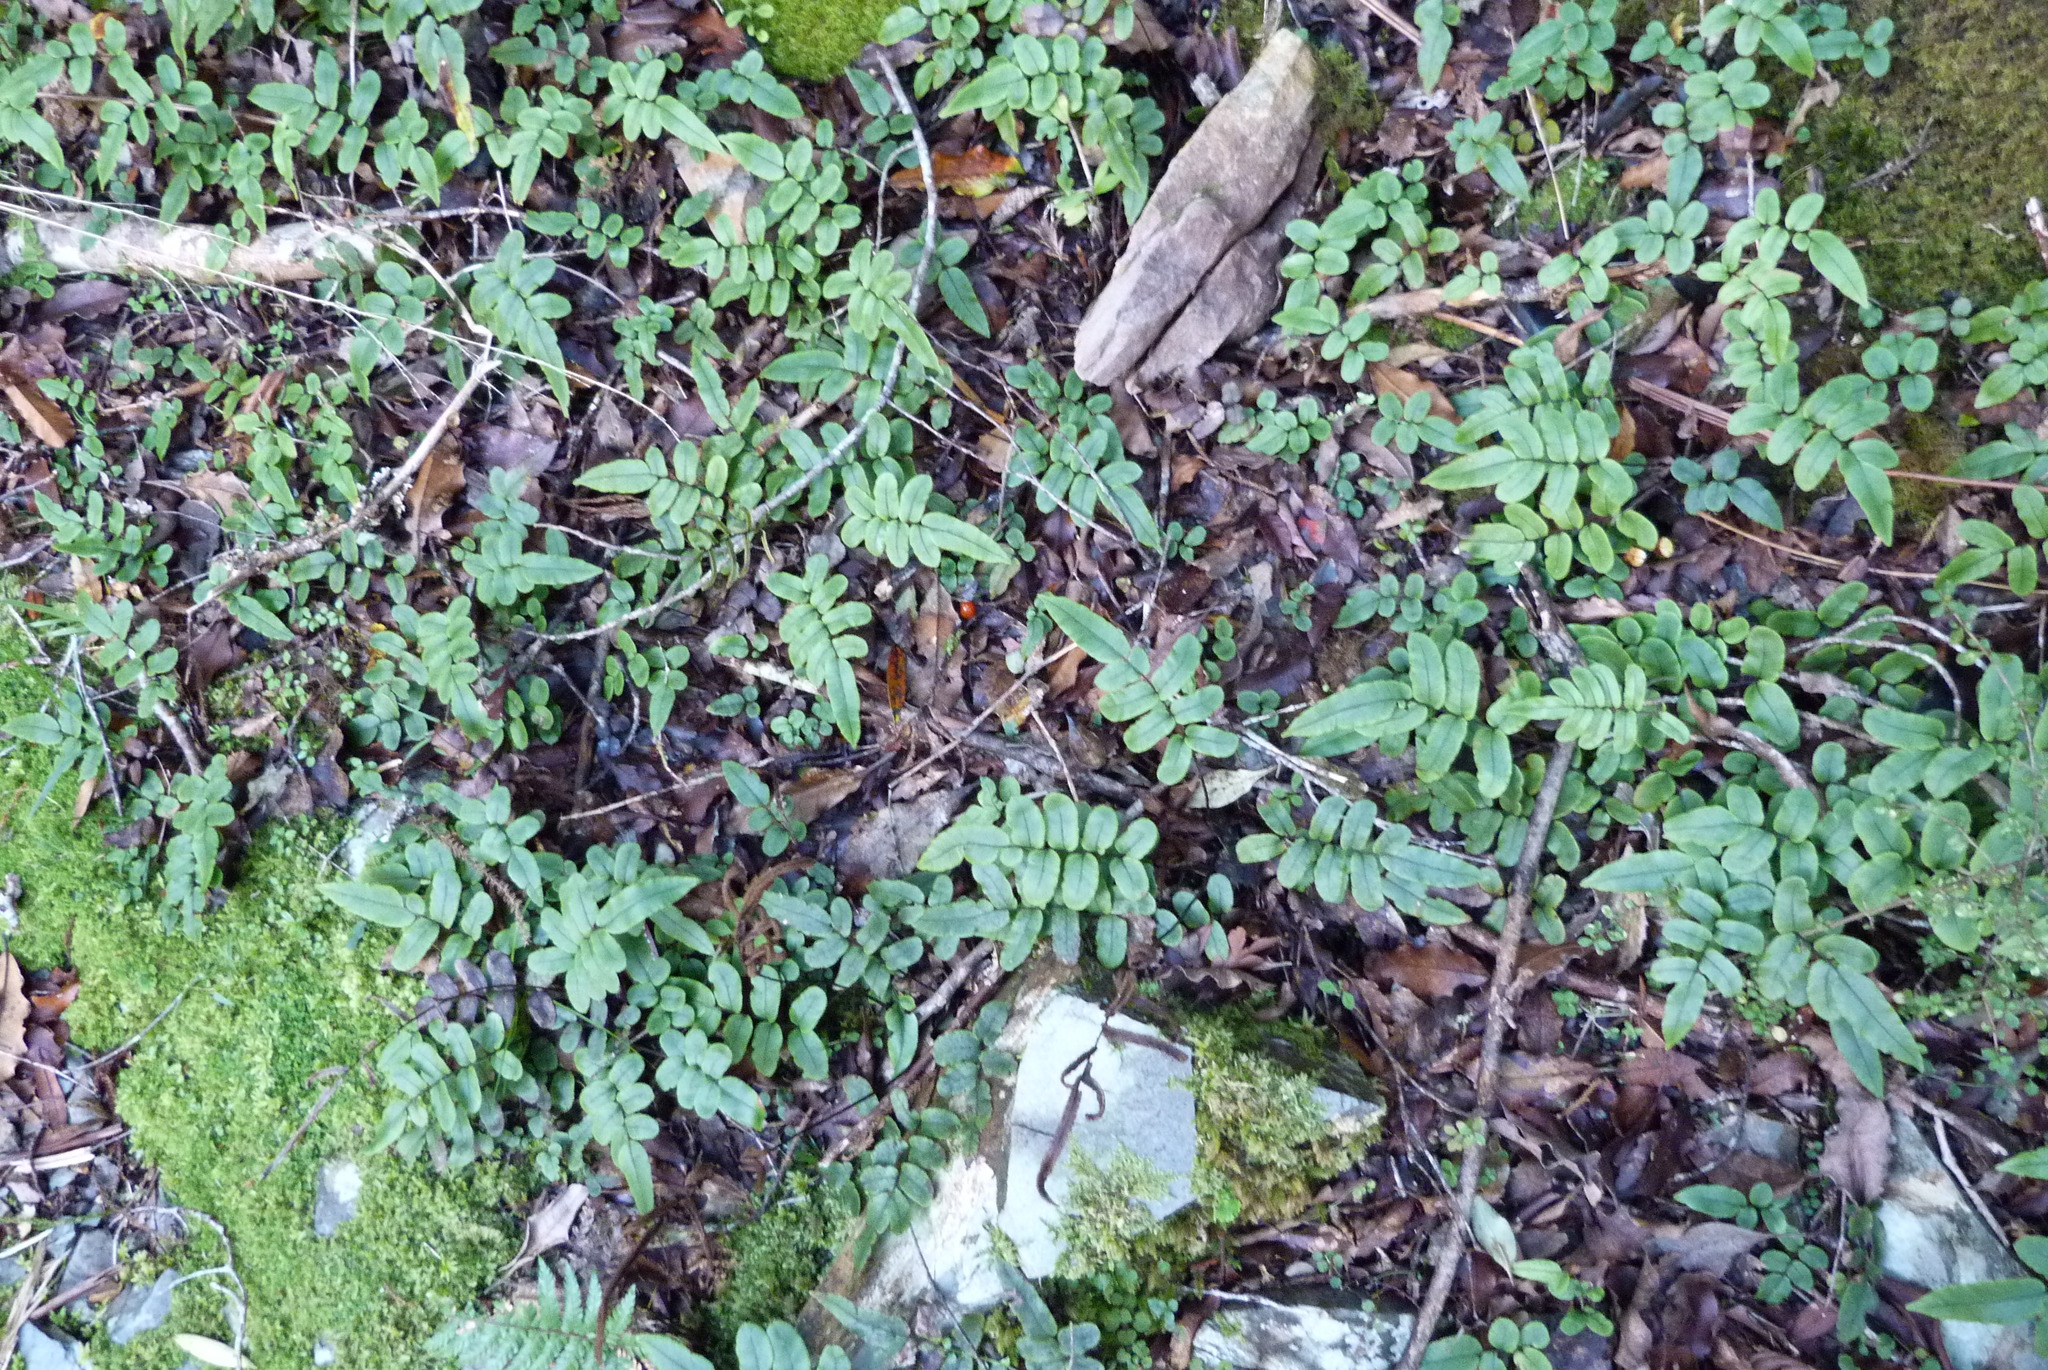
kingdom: Plantae
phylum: Tracheophyta
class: Polypodiopsida
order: Polypodiales
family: Blechnaceae
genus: Parablechnum
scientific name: Parablechnum procerum
